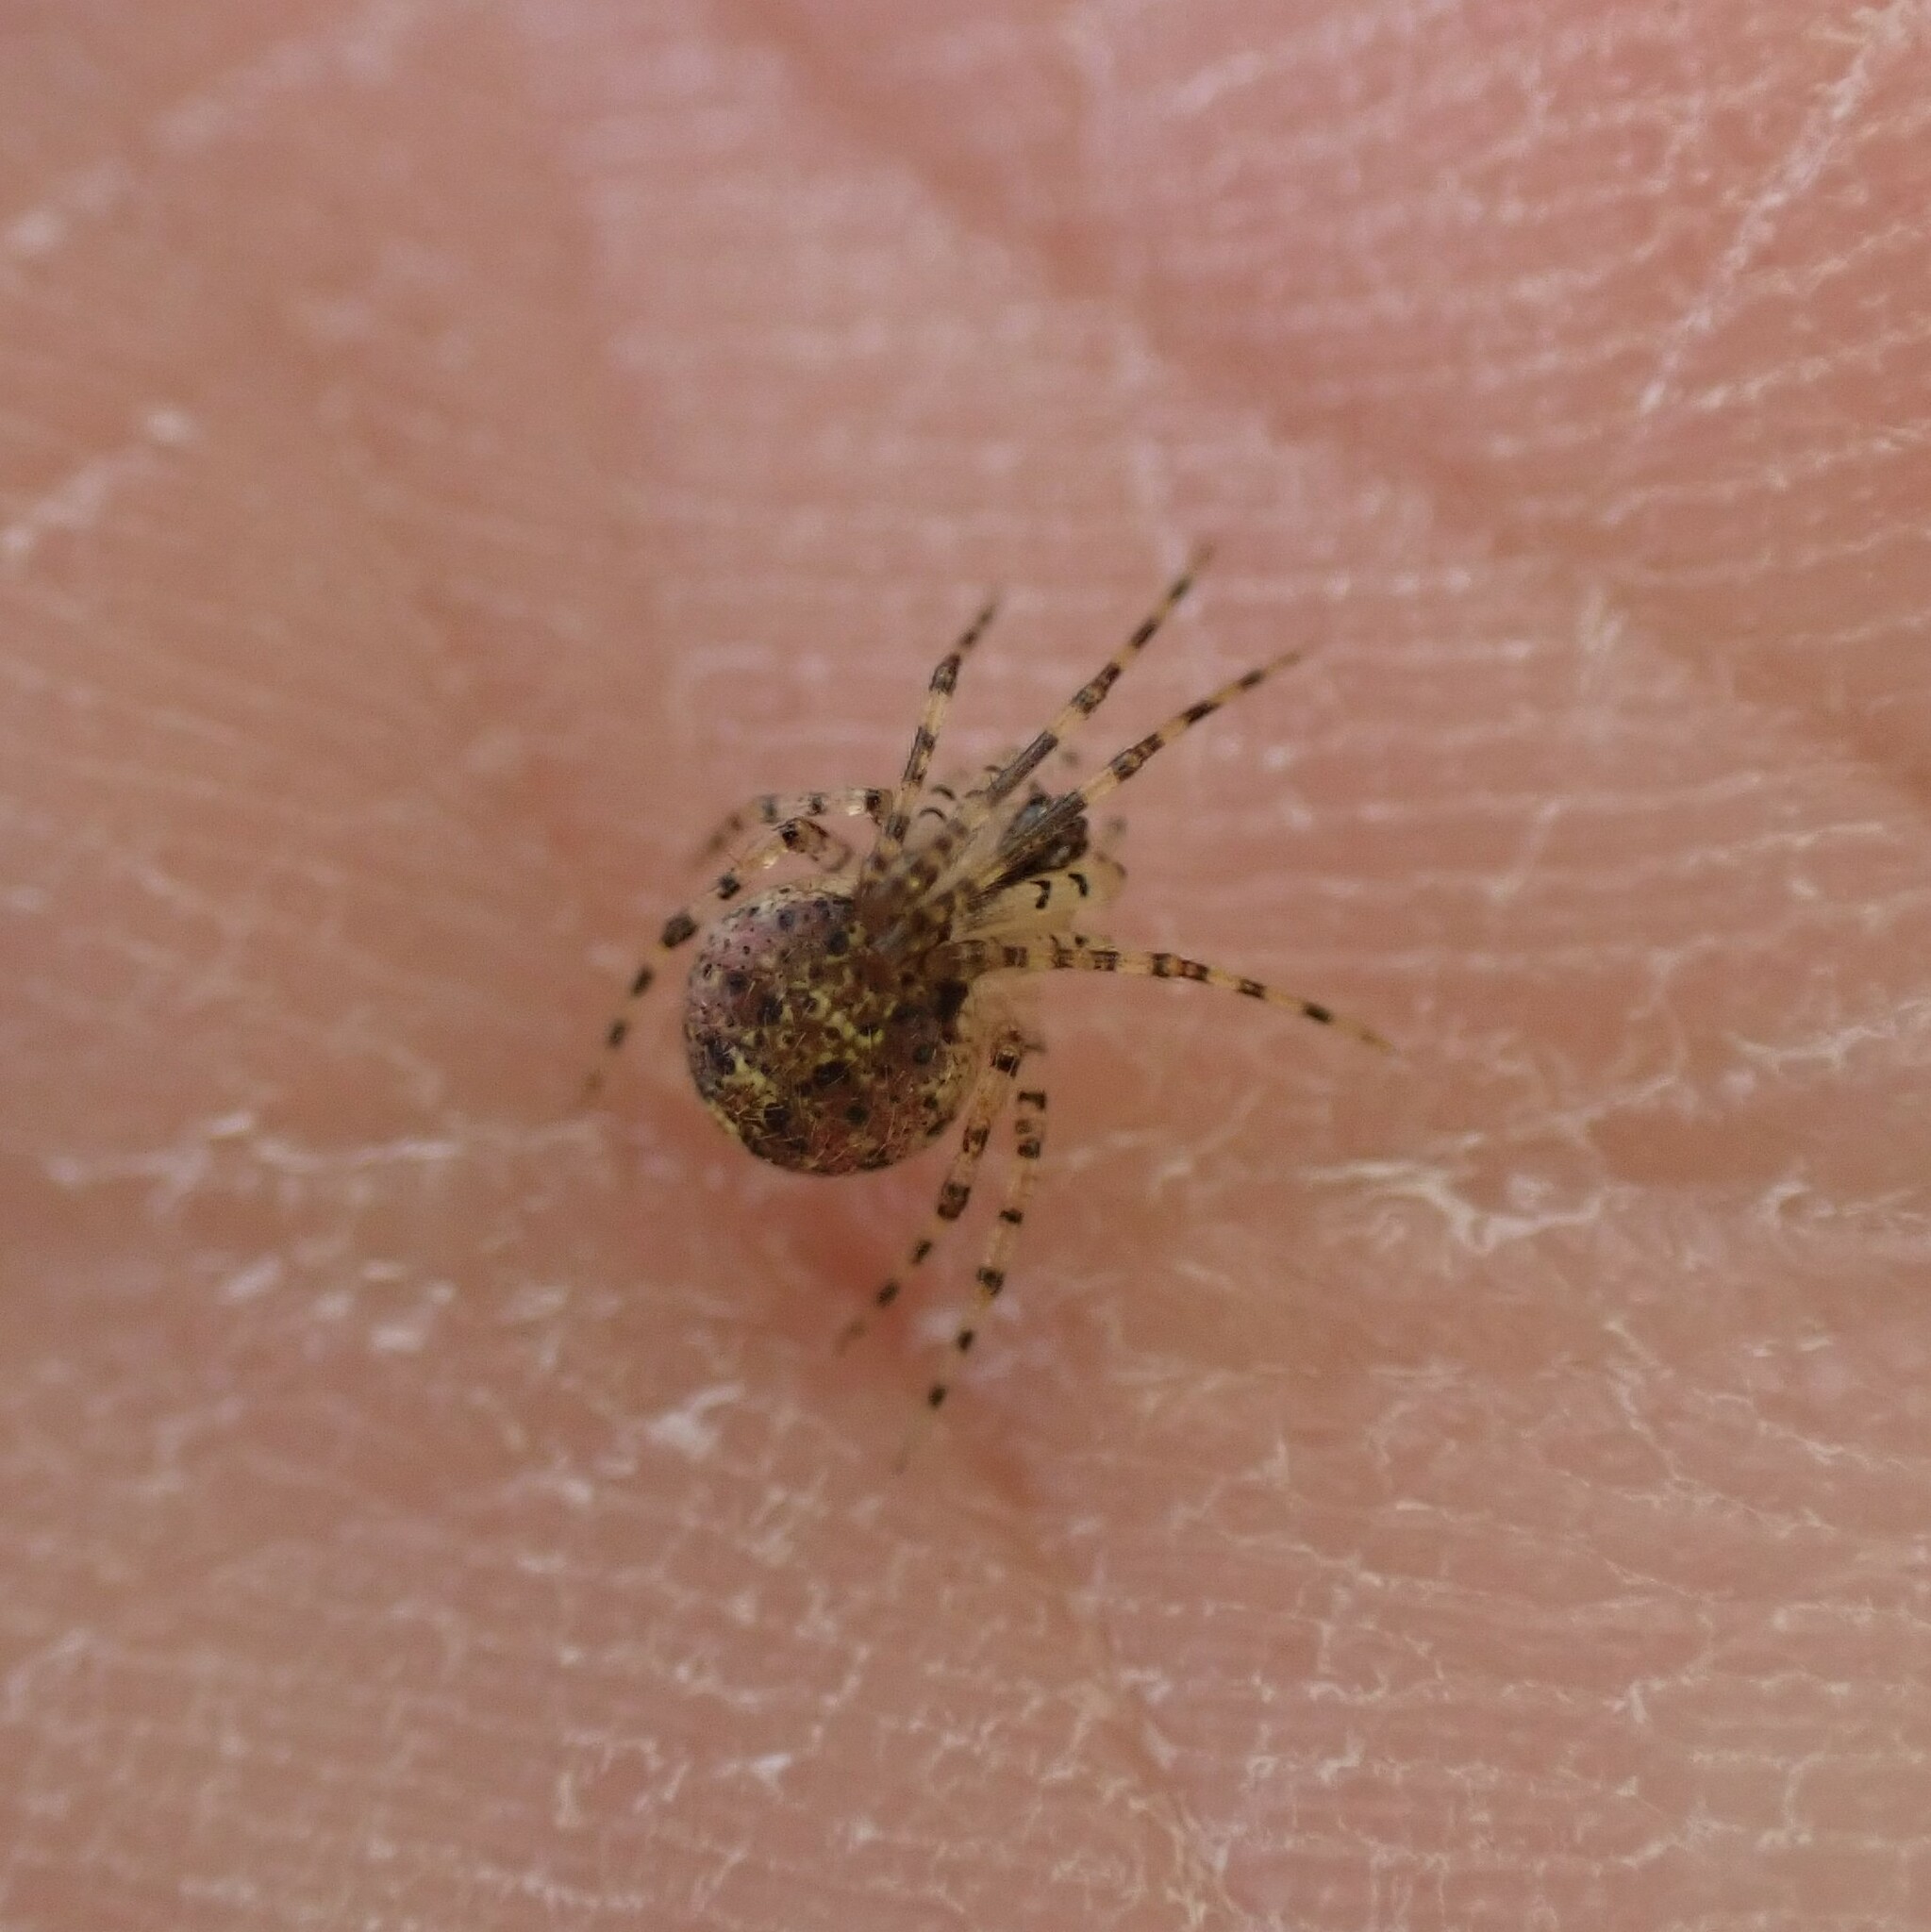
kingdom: Animalia
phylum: Arthropoda
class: Arachnida
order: Araneae
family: Theridiidae
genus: Platnickina
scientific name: Platnickina tincta
